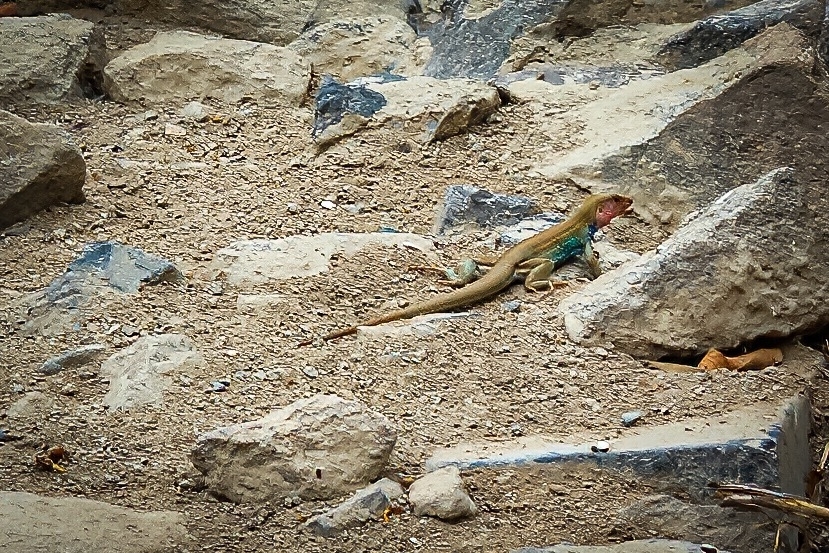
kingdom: Animalia
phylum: Chordata
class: Squamata
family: Teiidae
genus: Dicrodon
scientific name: Dicrodon heterolepis
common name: Ecuador desert tegu
